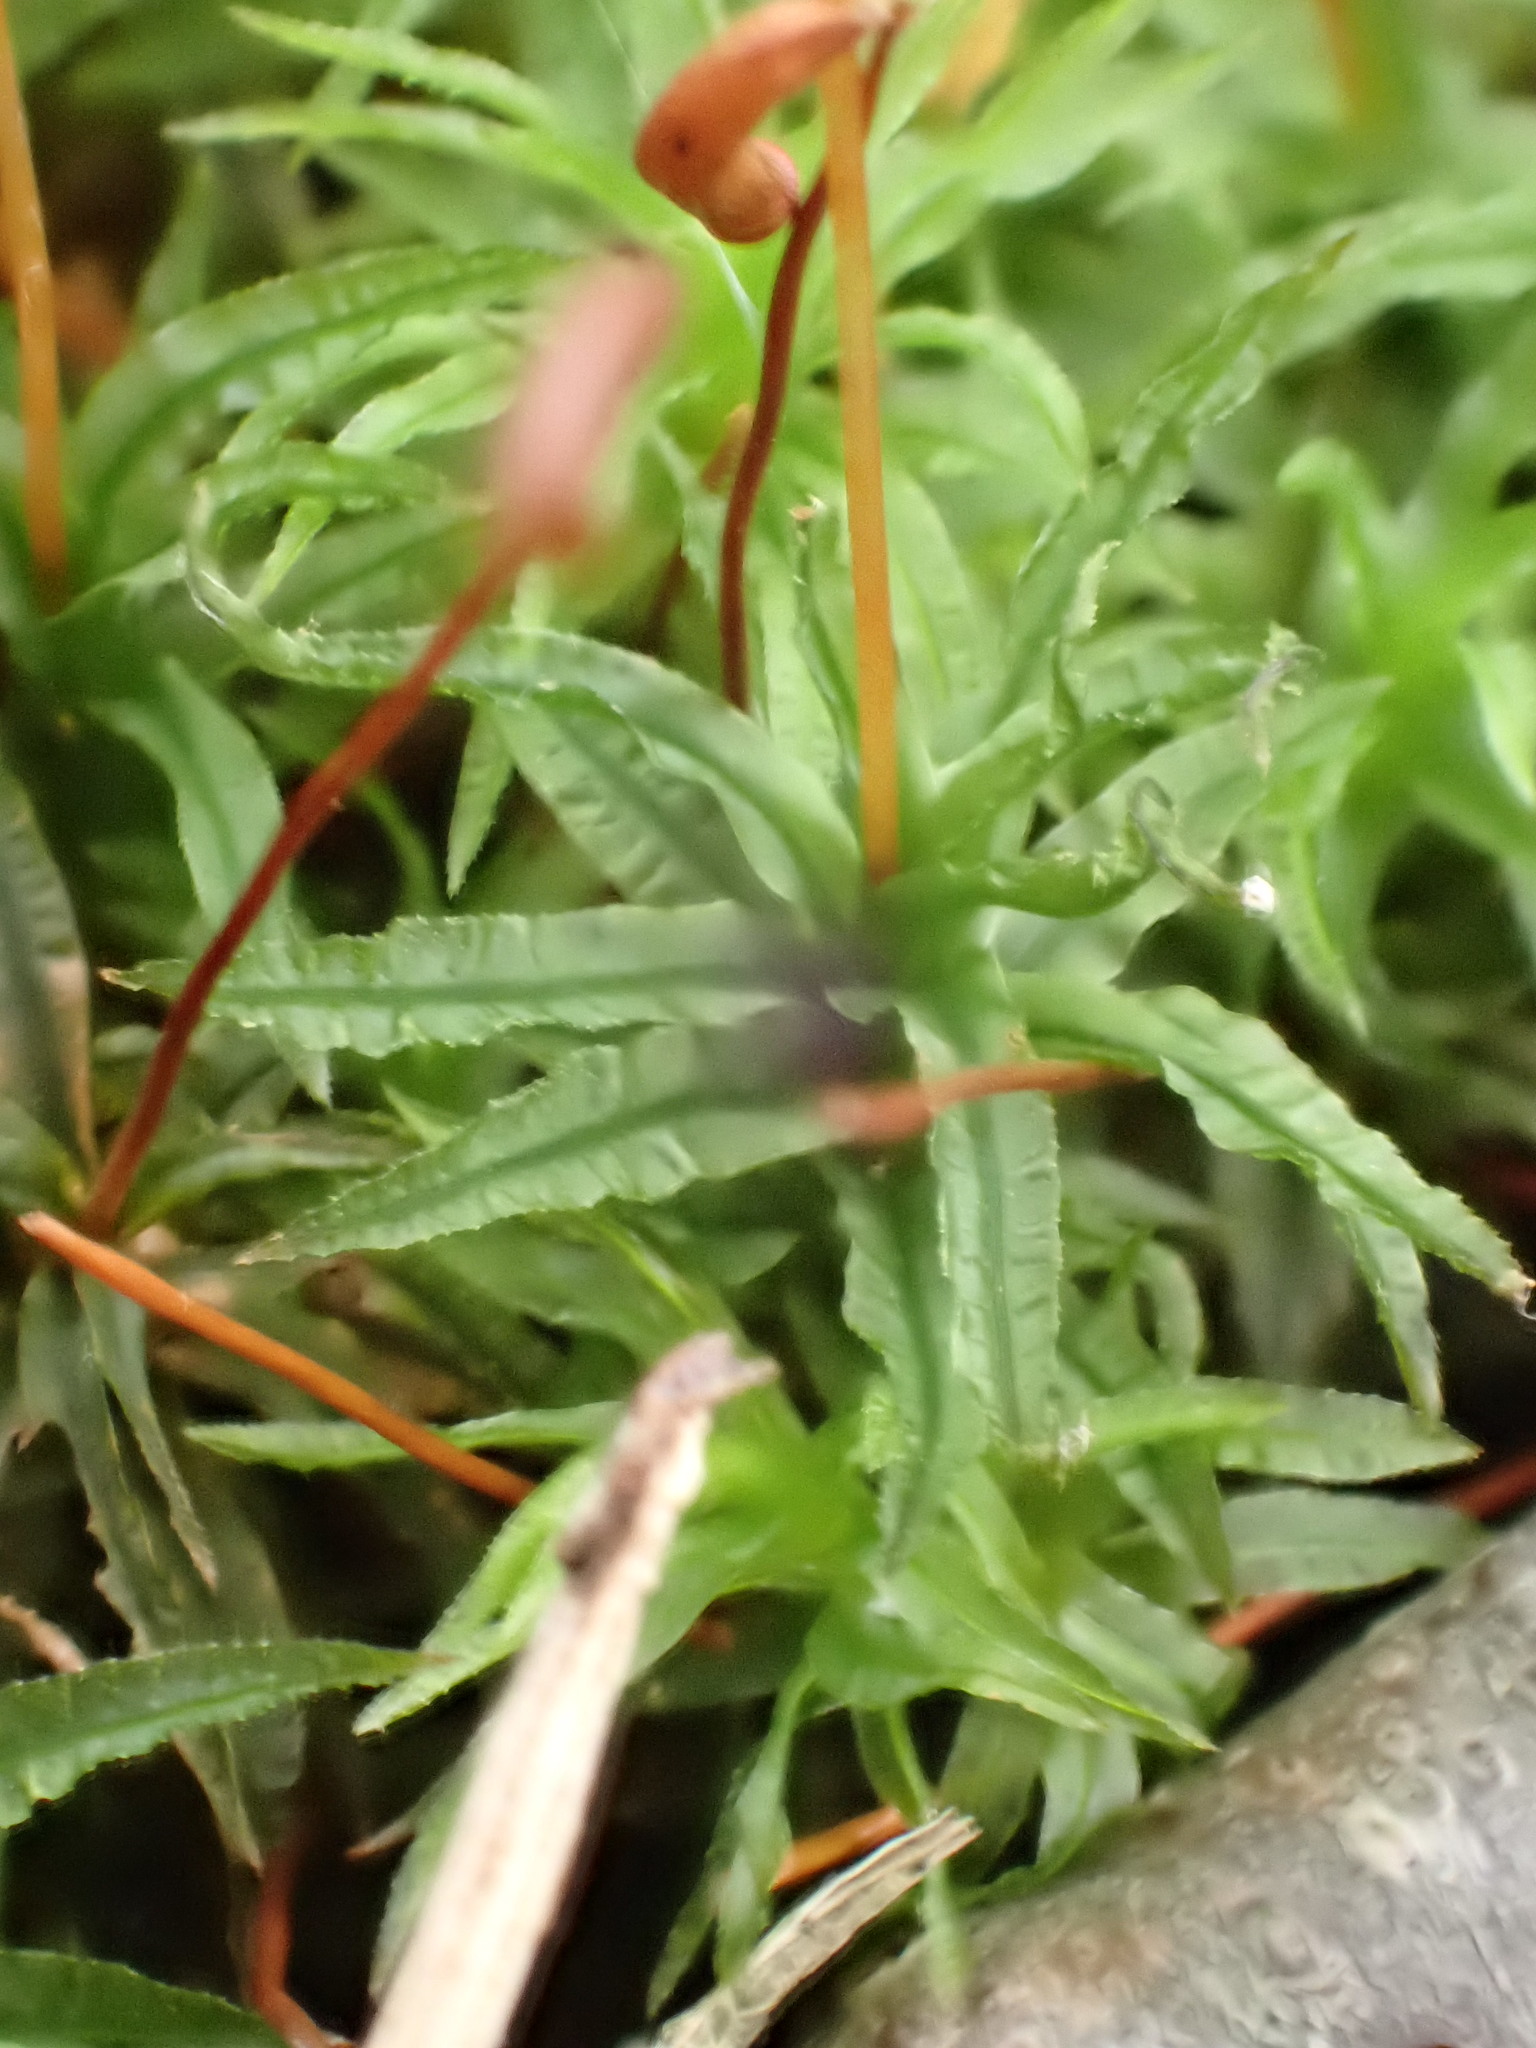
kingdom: Plantae
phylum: Bryophyta
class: Polytrichopsida
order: Polytrichales
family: Polytrichaceae
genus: Atrichum
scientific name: Atrichum undulatum
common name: Common smoothcap
